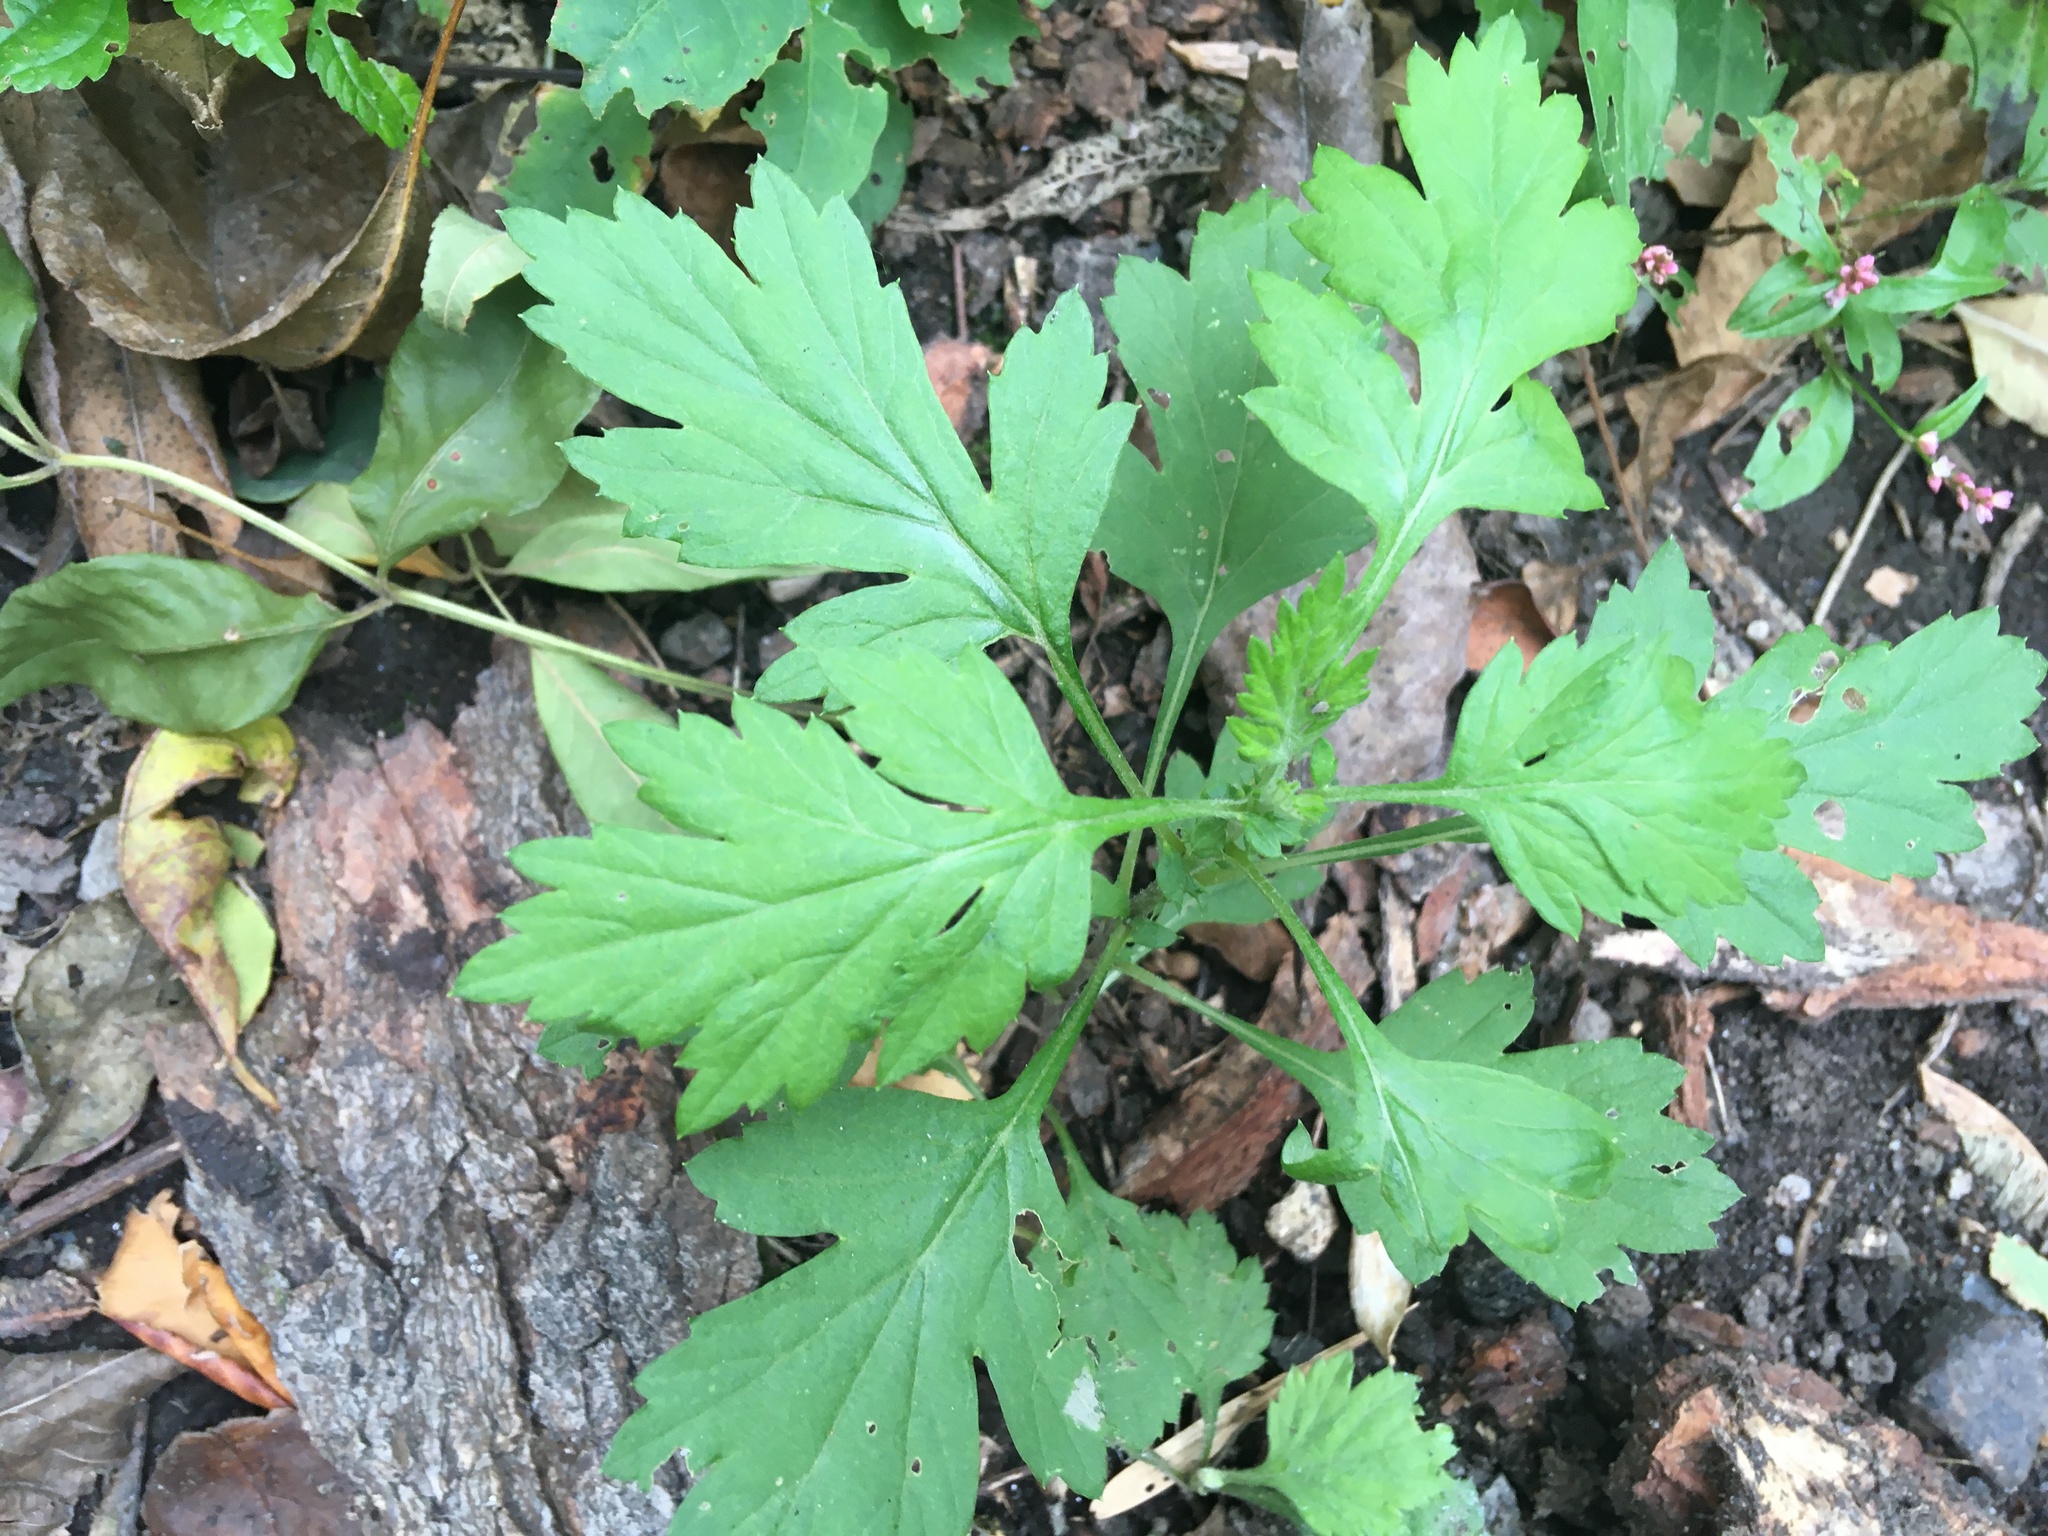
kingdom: Plantae
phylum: Tracheophyta
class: Magnoliopsida
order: Asterales
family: Asteraceae
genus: Artemisia
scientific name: Artemisia vulgaris
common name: Mugwort
